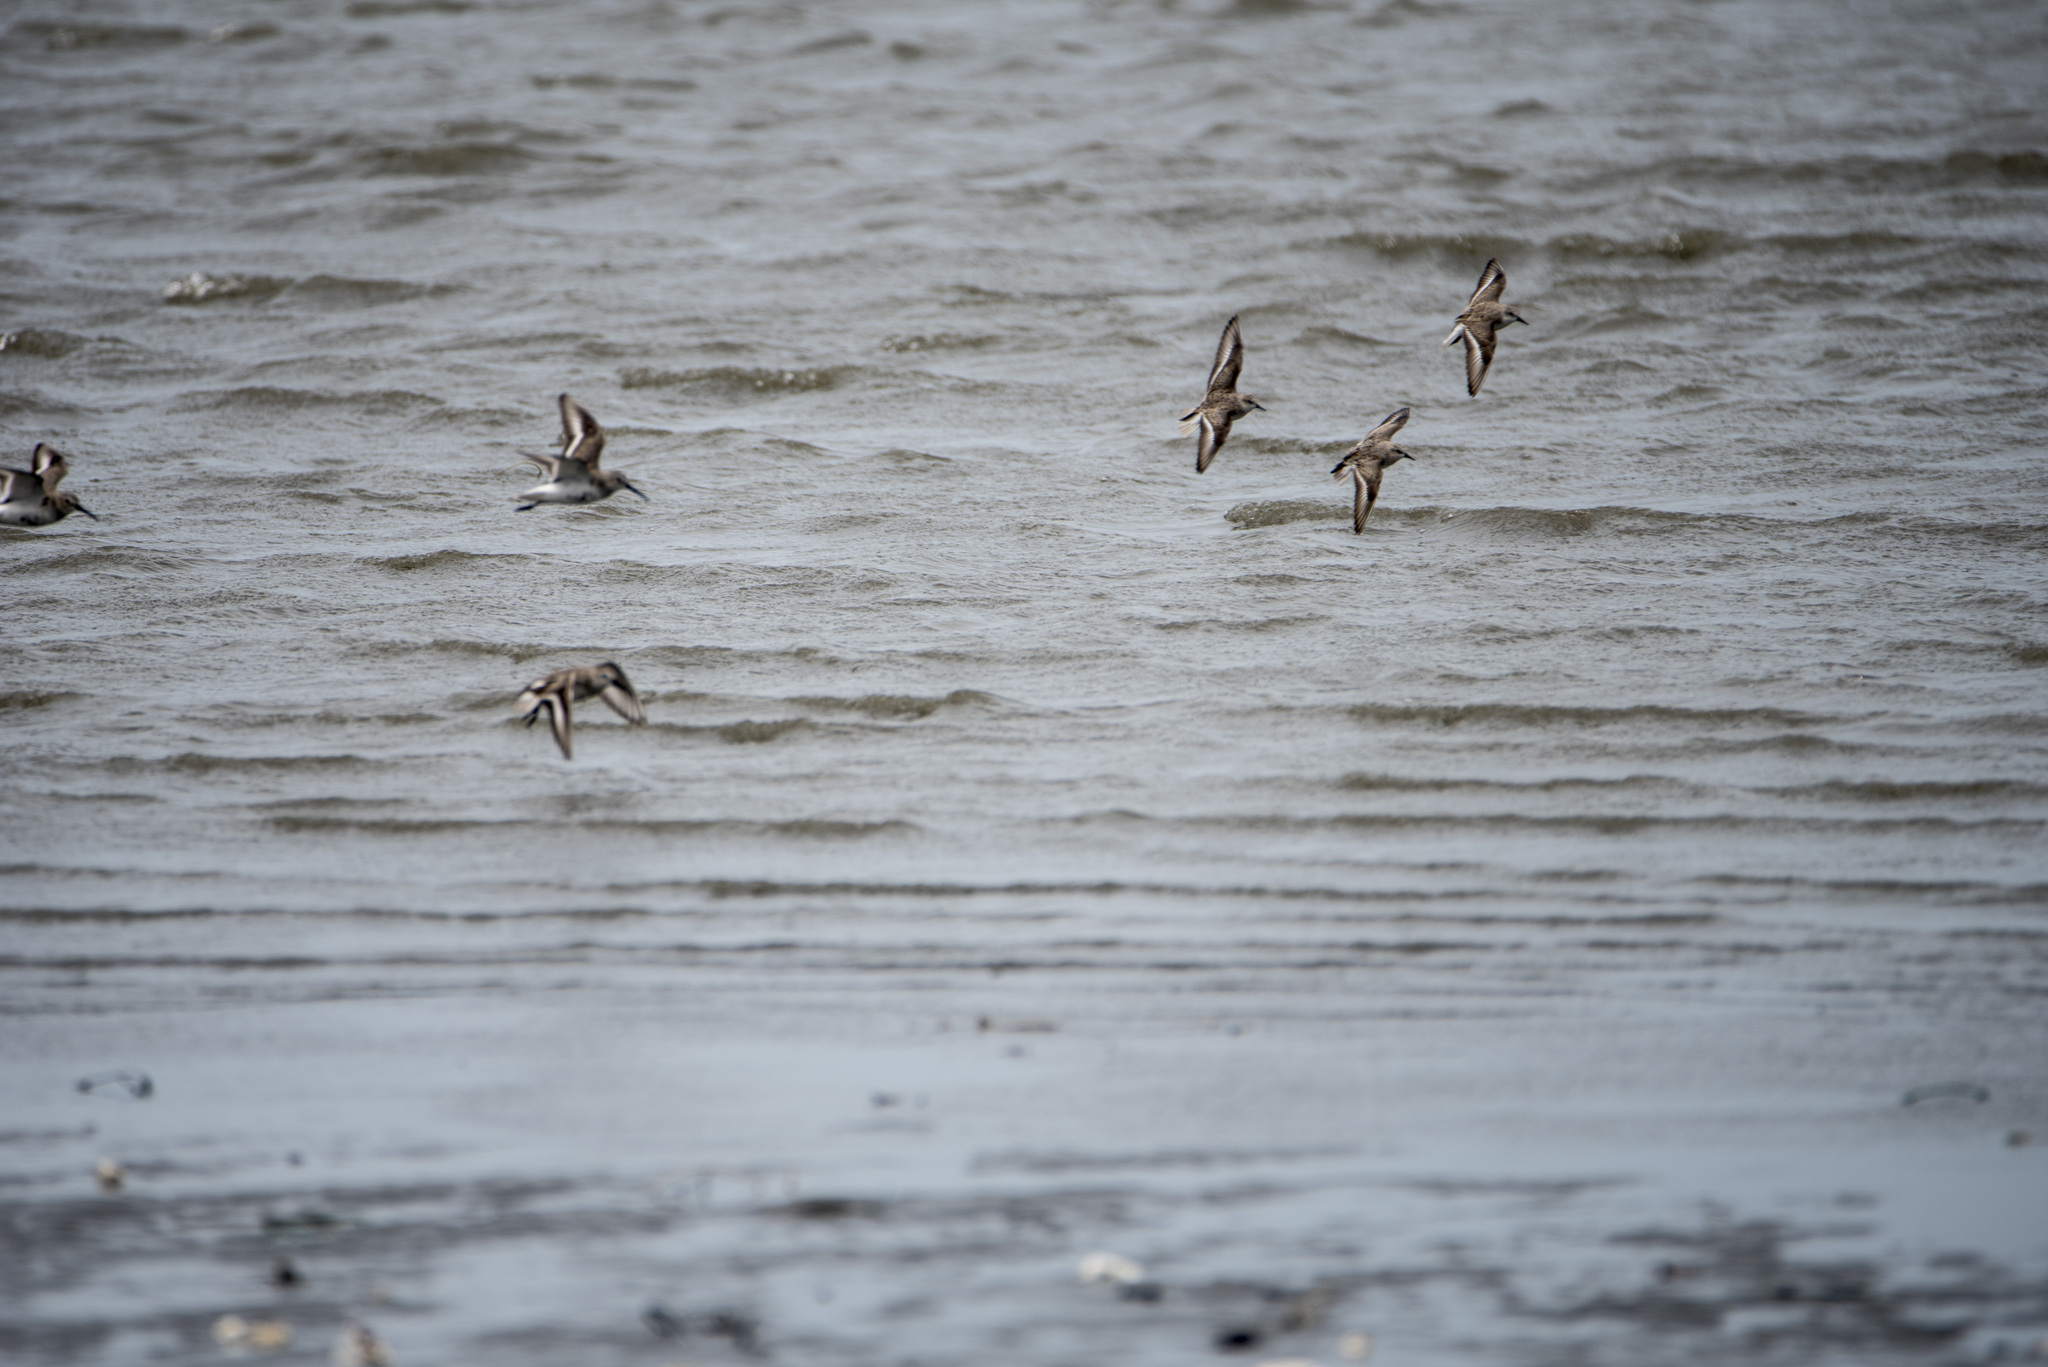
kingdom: Animalia
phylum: Chordata
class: Aves
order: Charadriiformes
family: Scolopacidae
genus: Calidris
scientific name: Calidris ruficollis
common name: Red-necked stint
